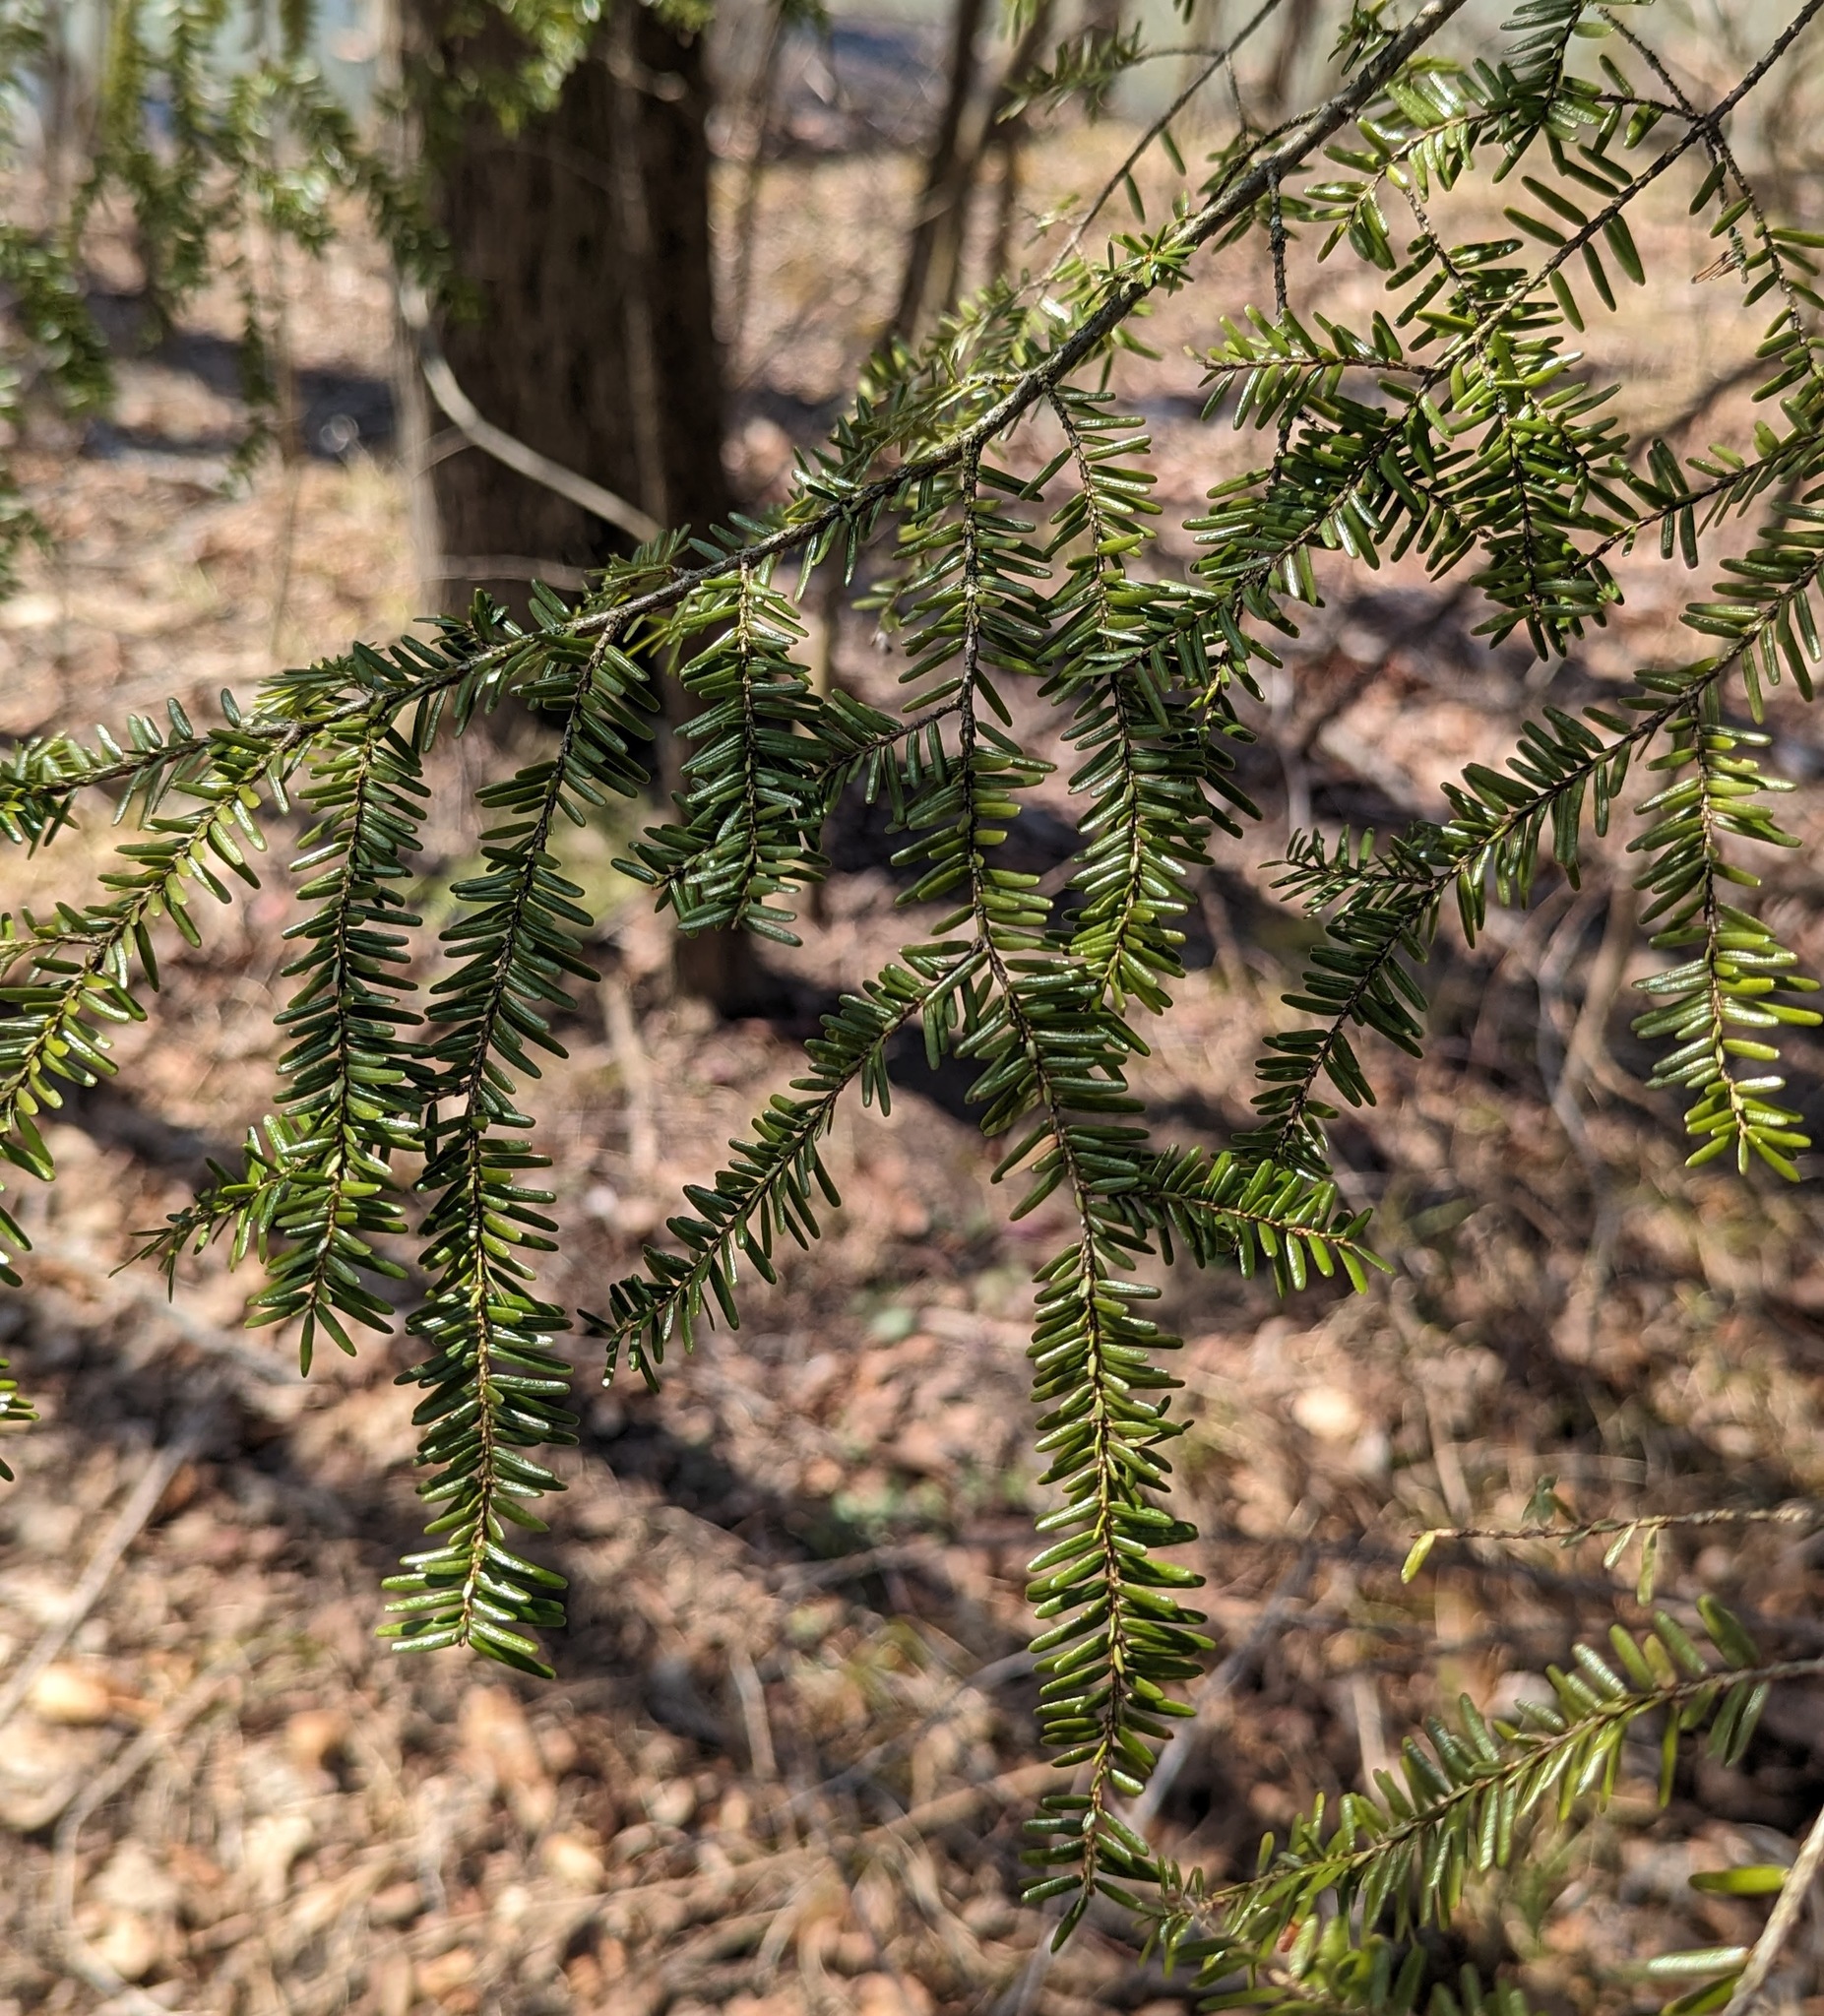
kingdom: Plantae
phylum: Tracheophyta
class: Pinopsida
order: Pinales
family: Pinaceae
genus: Tsuga
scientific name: Tsuga canadensis
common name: Eastern hemlock
